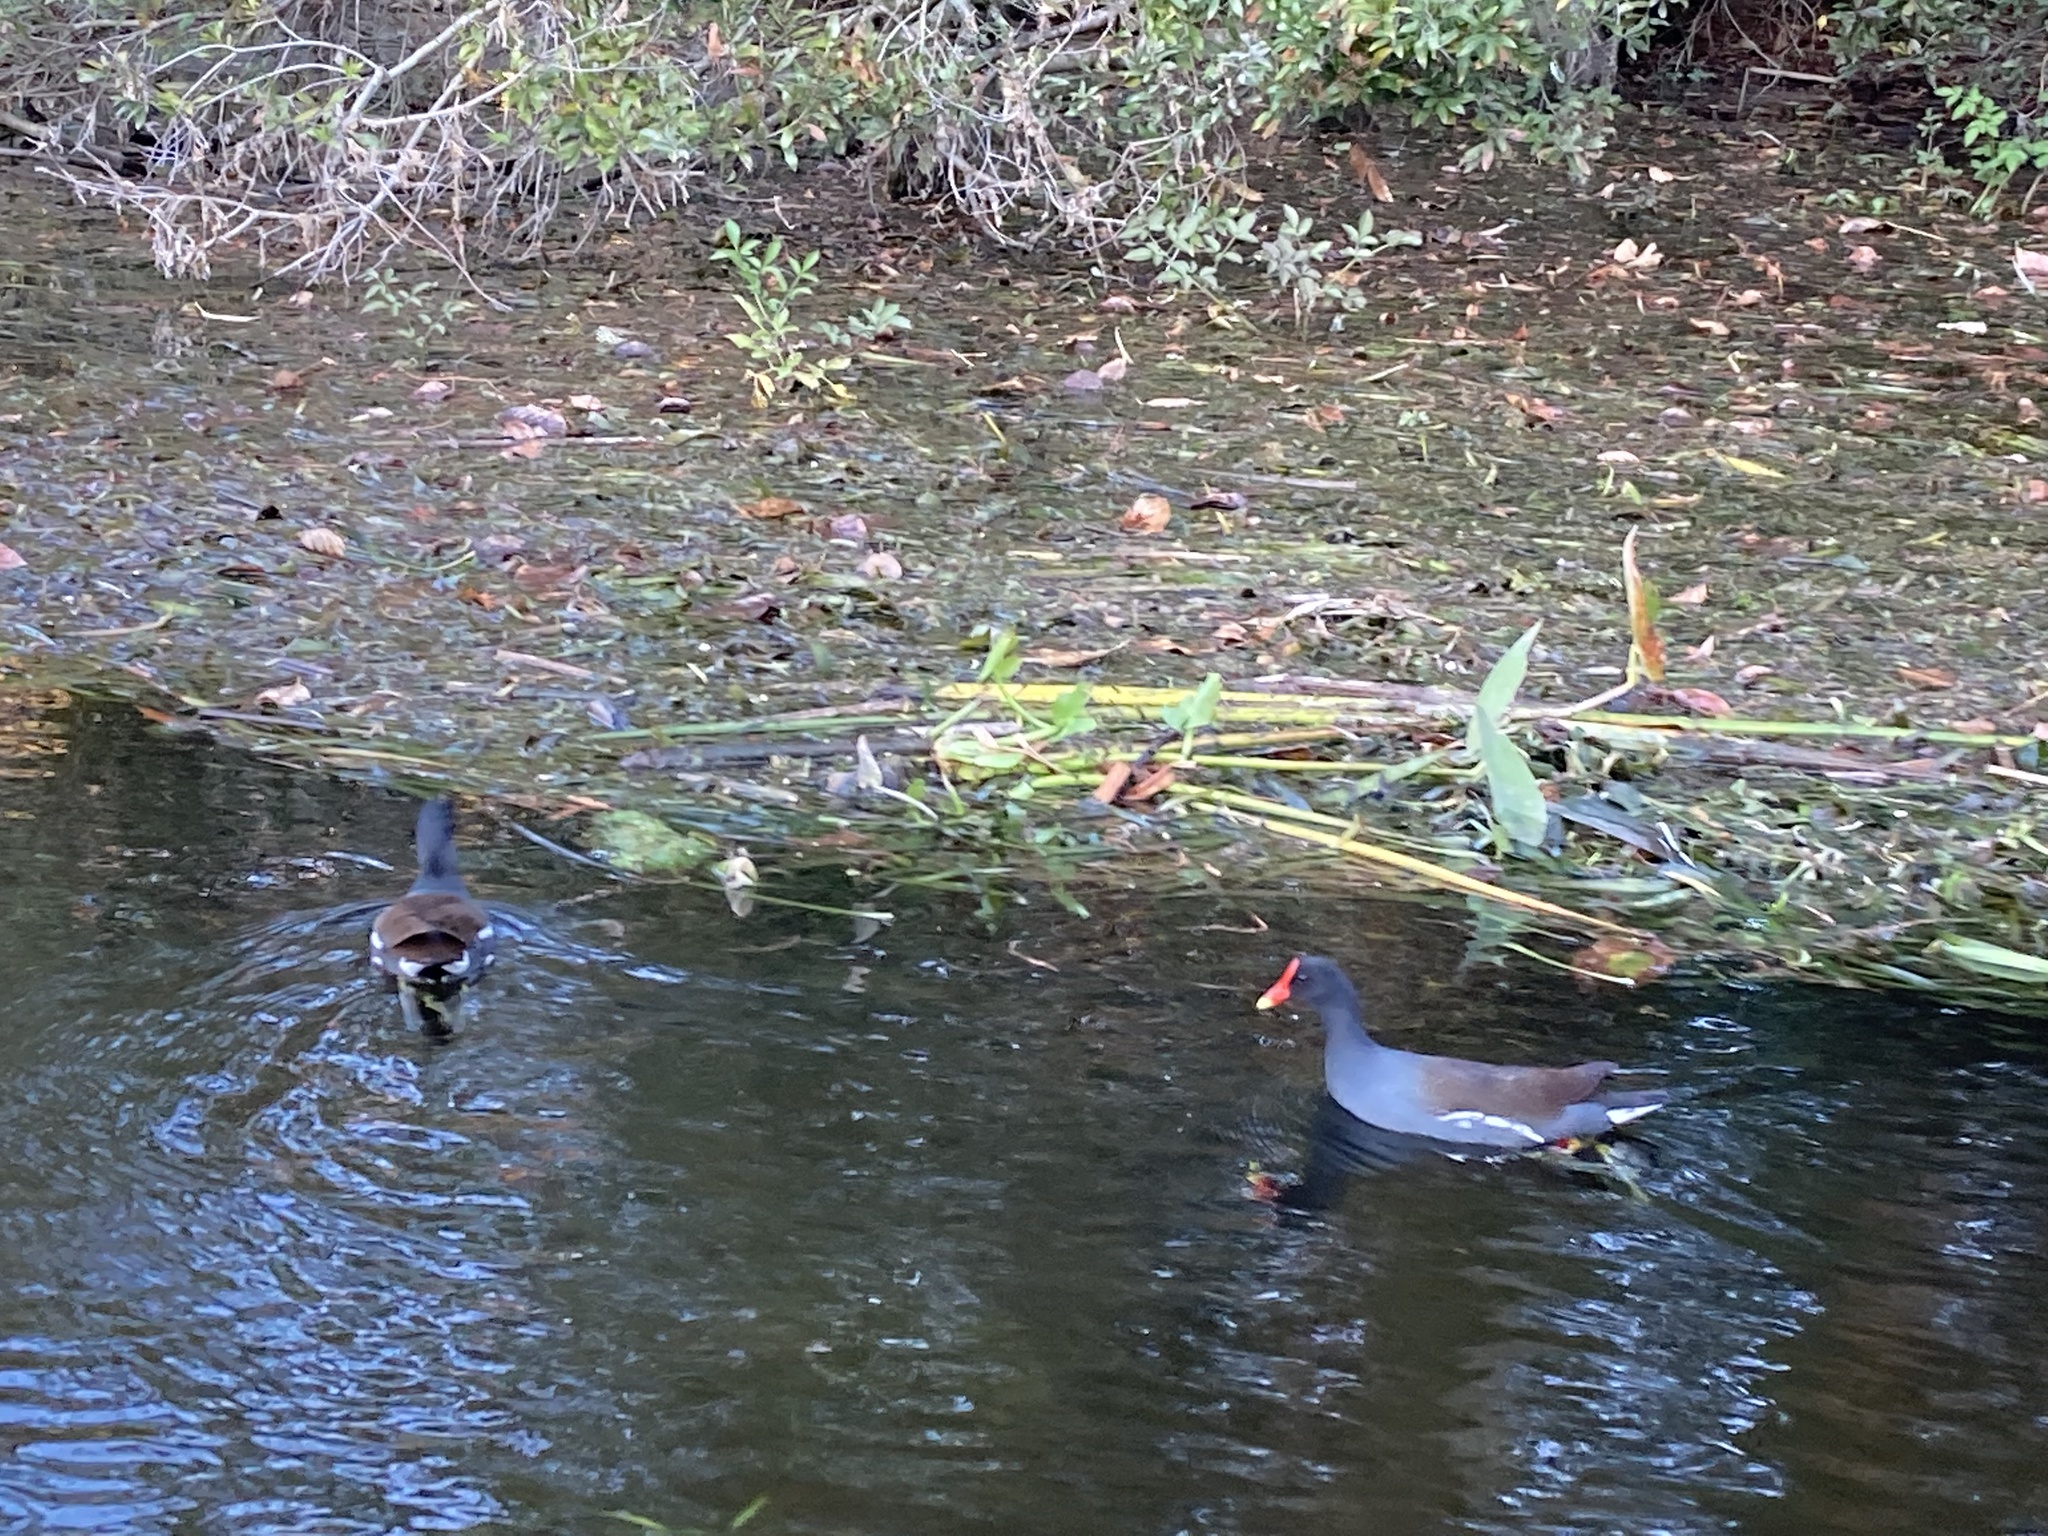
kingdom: Animalia
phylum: Chordata
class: Aves
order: Gruiformes
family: Rallidae
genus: Gallinula
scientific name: Gallinula chloropus
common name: Common moorhen
